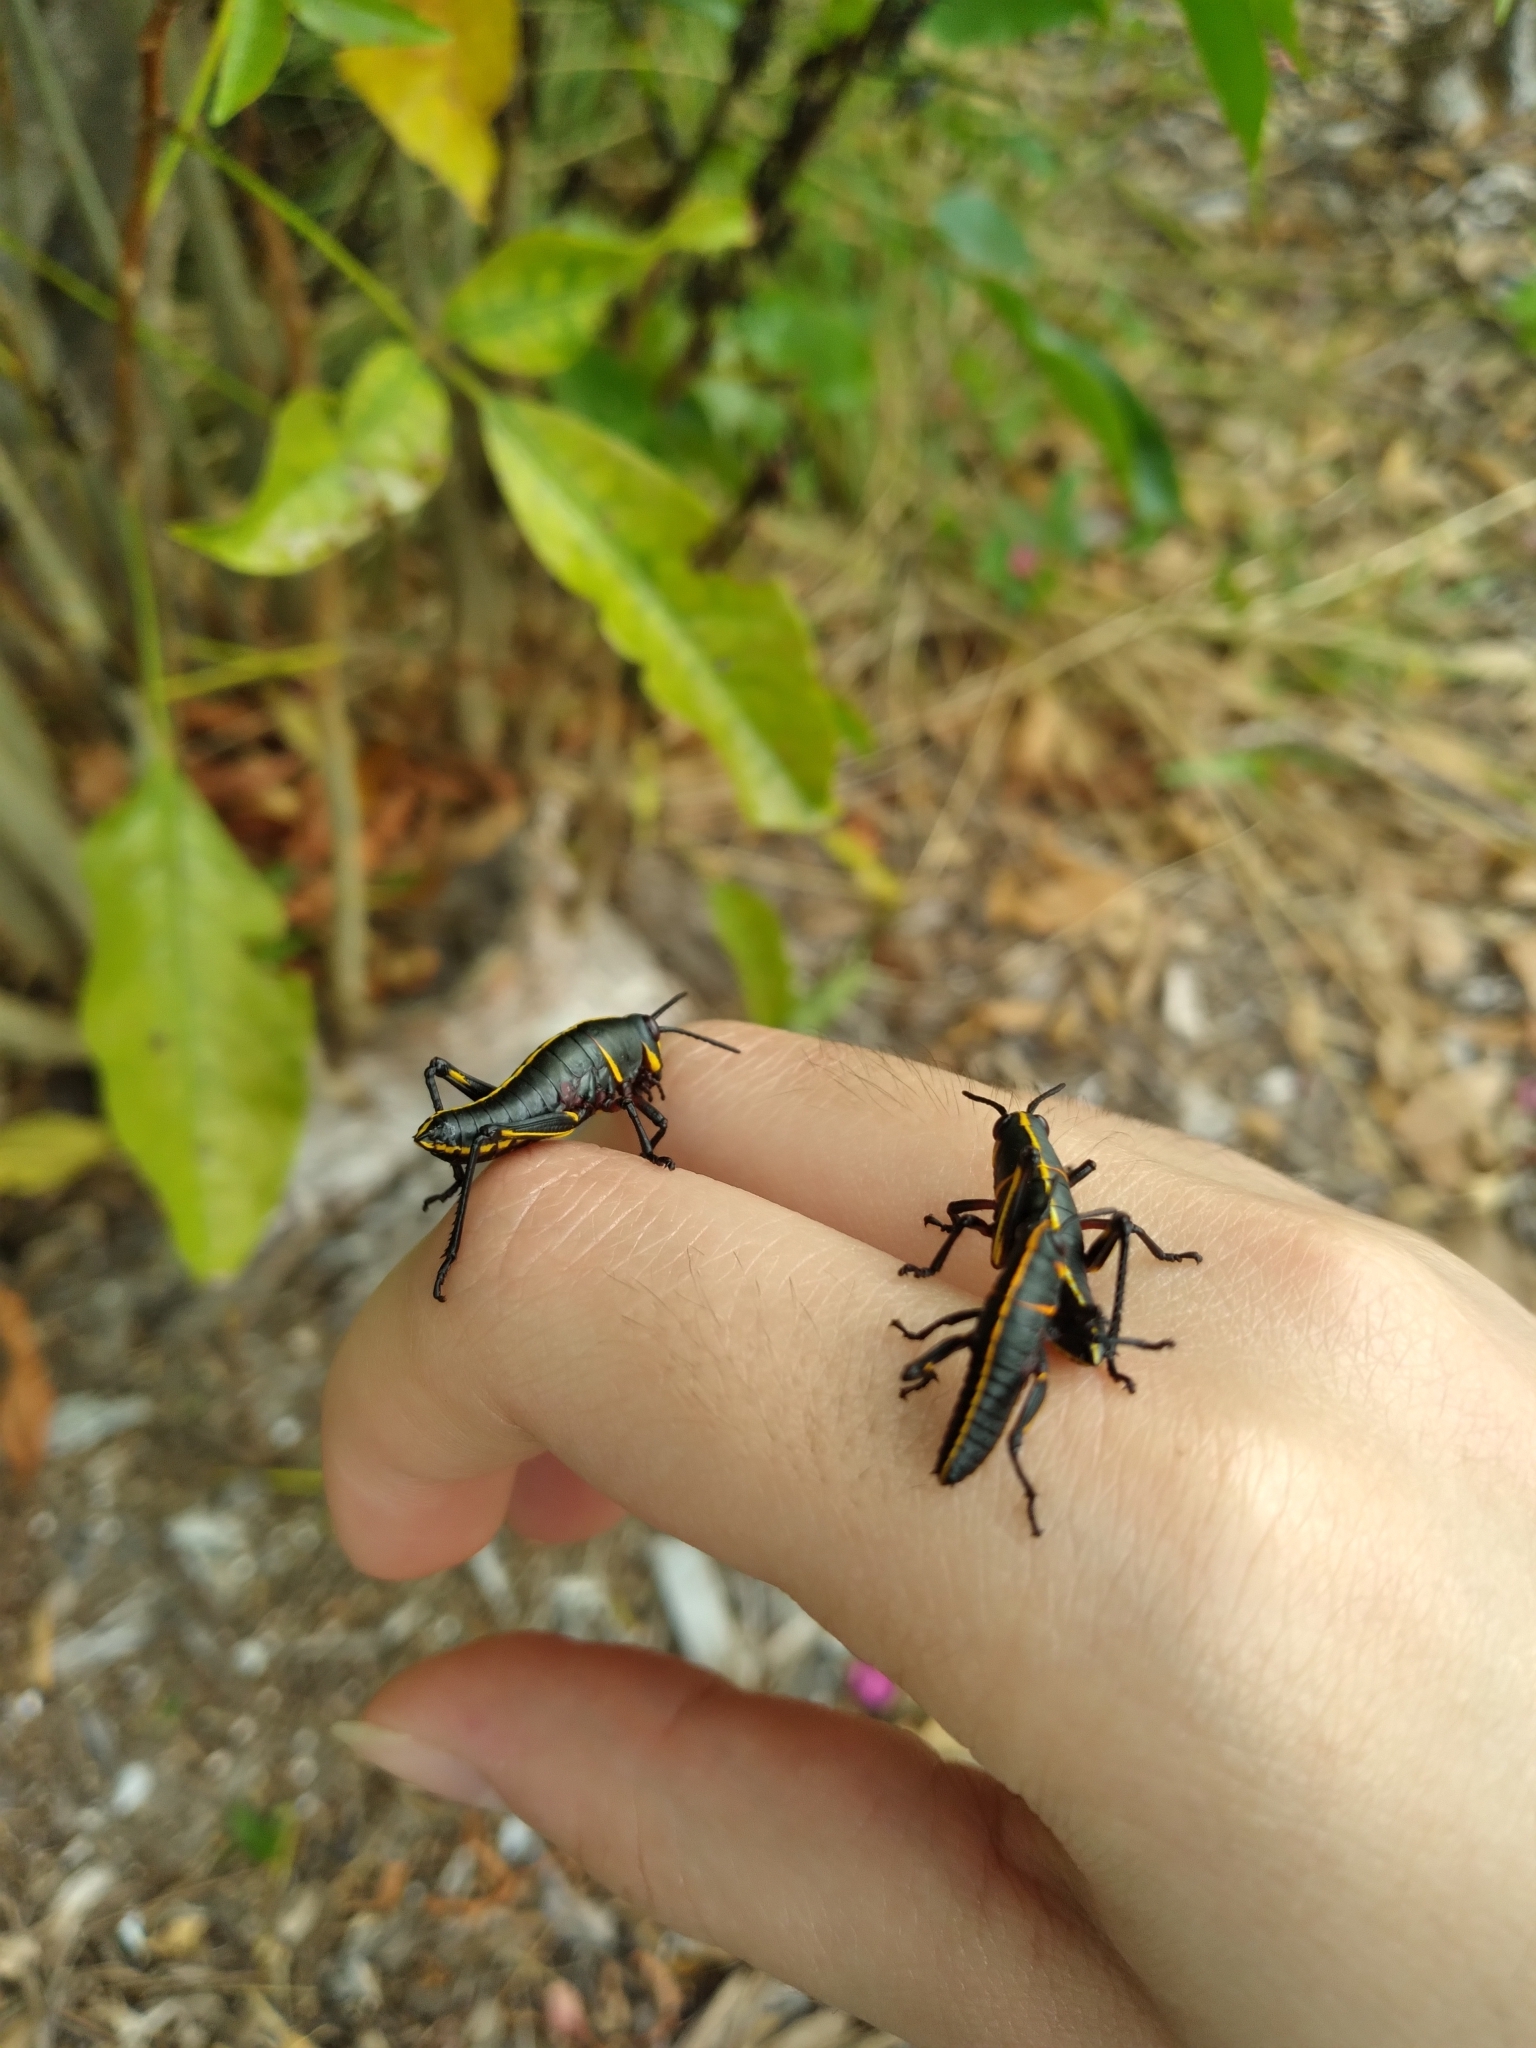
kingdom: Animalia
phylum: Arthropoda
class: Insecta
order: Orthoptera
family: Romaleidae
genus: Romalea
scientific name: Romalea microptera
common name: Eastern lubber grasshopper
